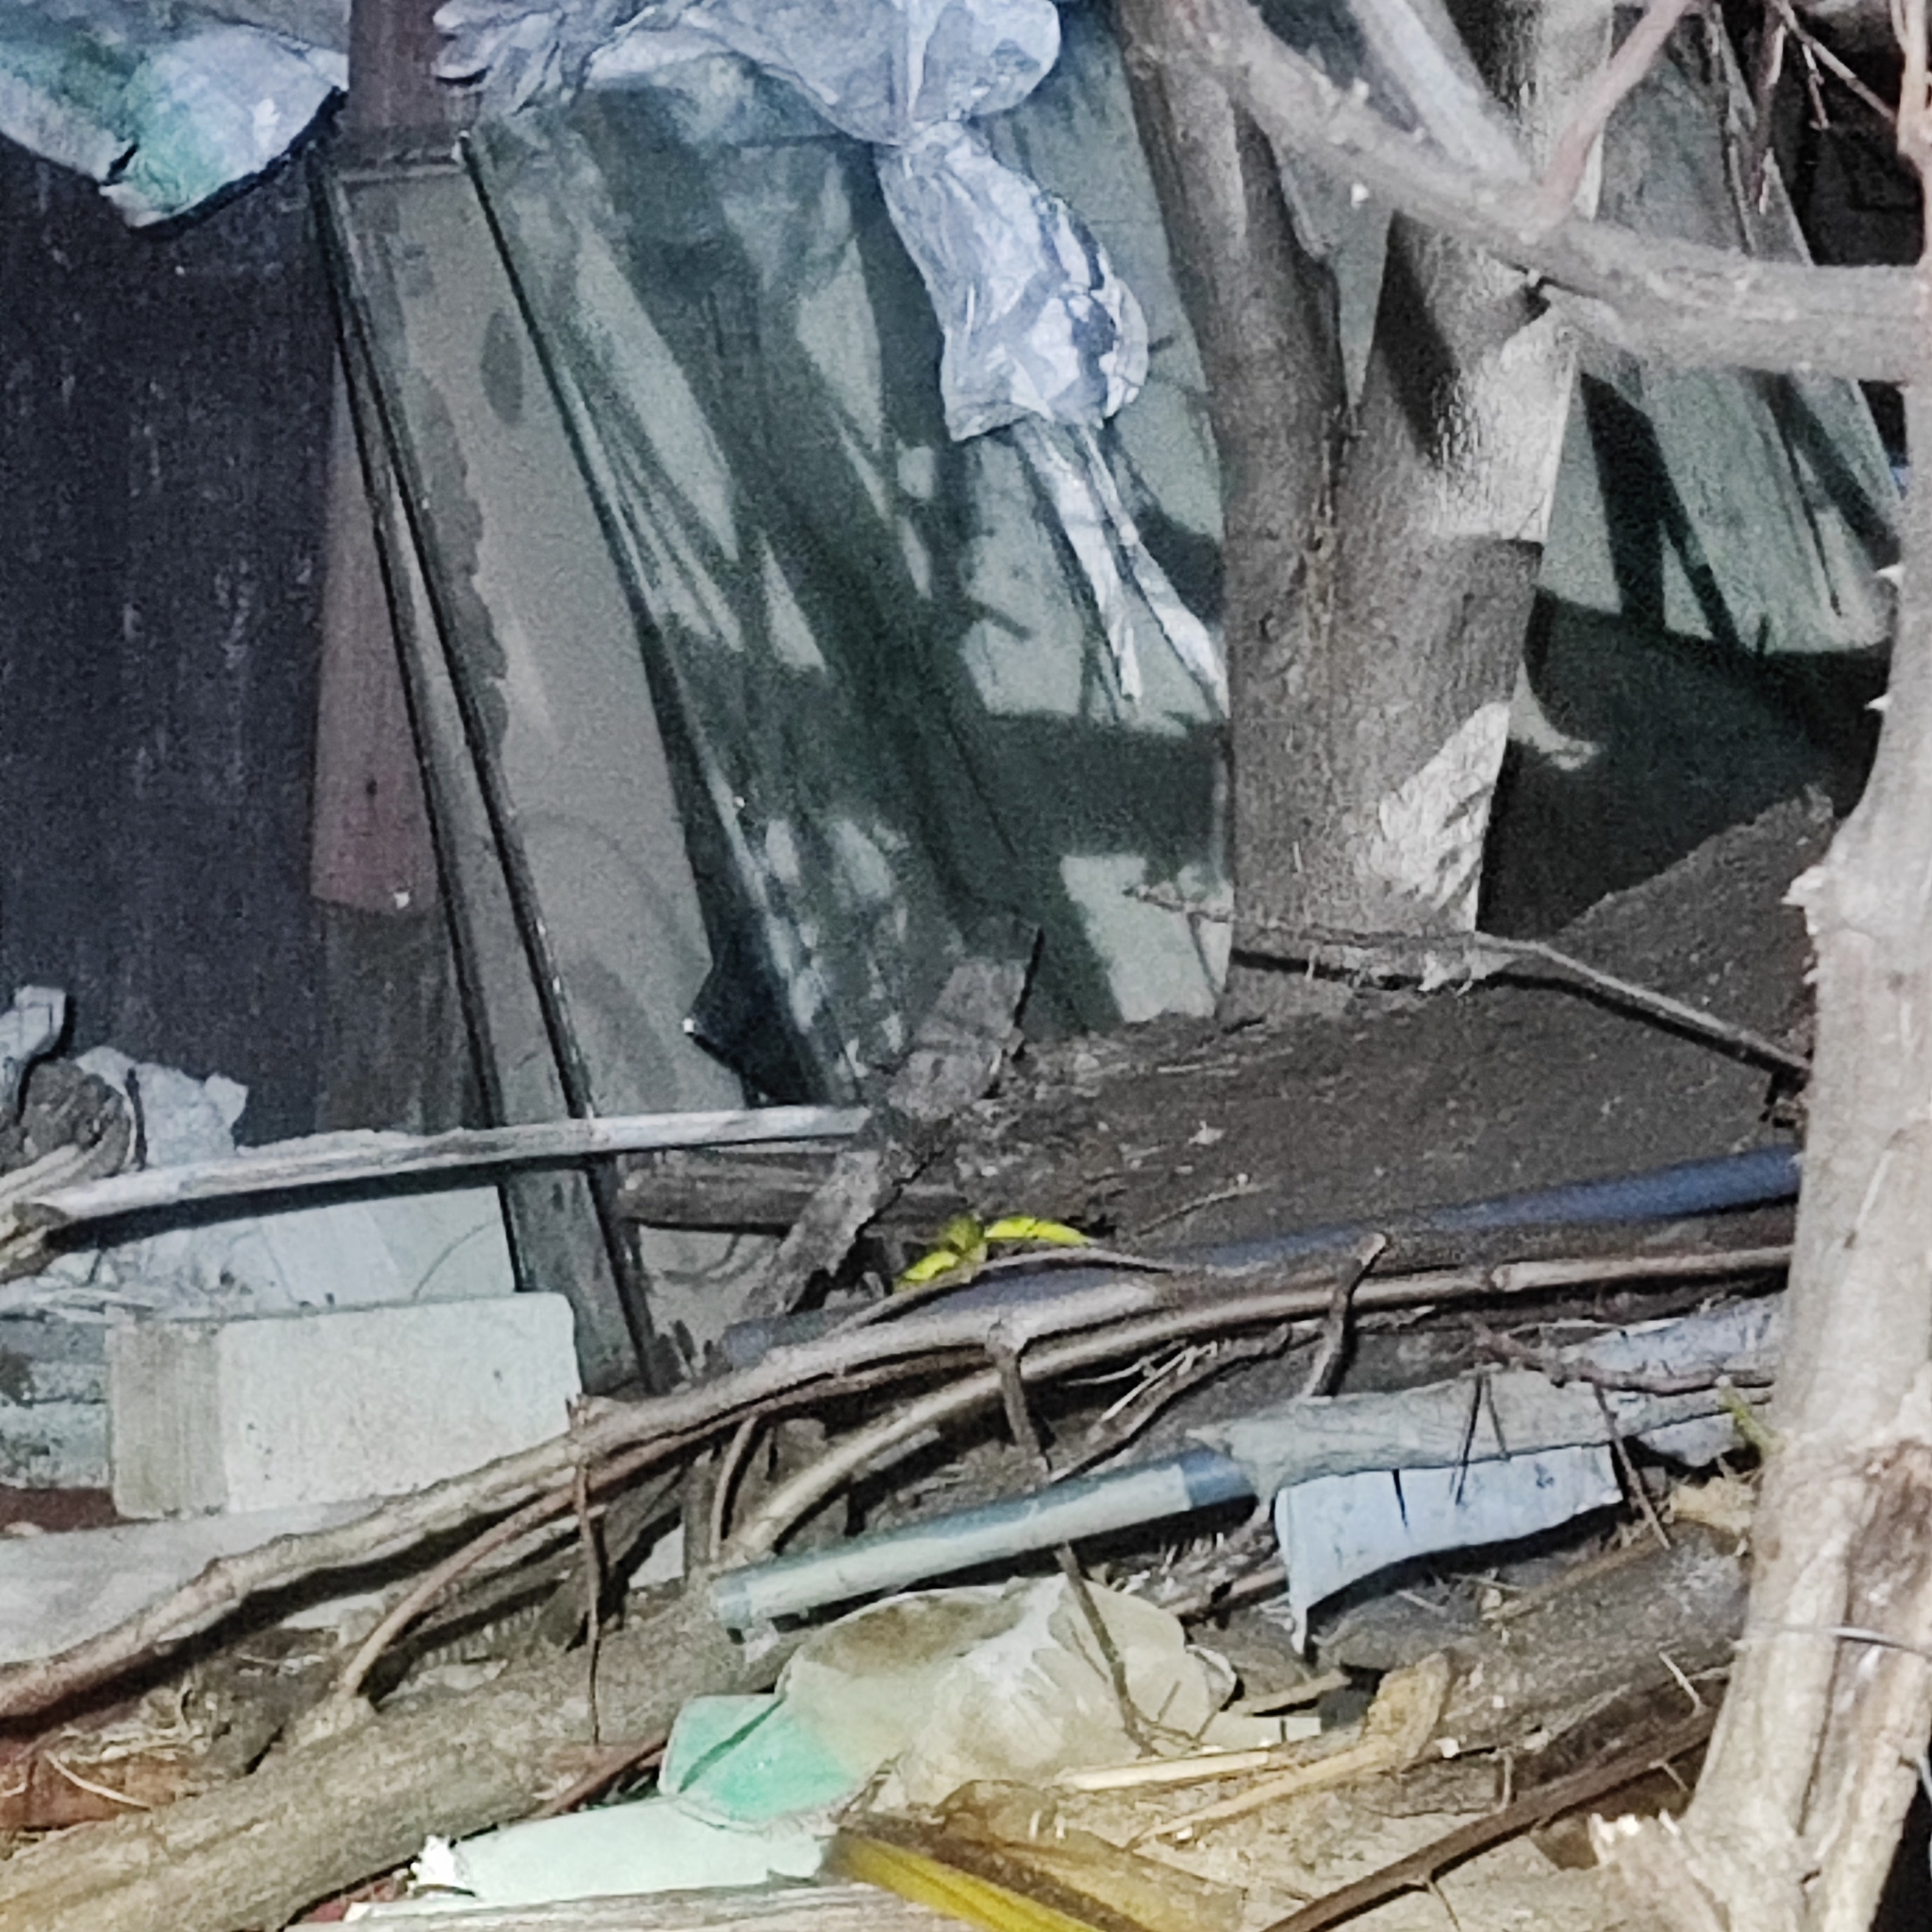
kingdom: Animalia
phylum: Chordata
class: Squamata
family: Viperidae
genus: Trimeresurus
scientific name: Trimeresurus albolabris
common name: White-lipped pitviper
